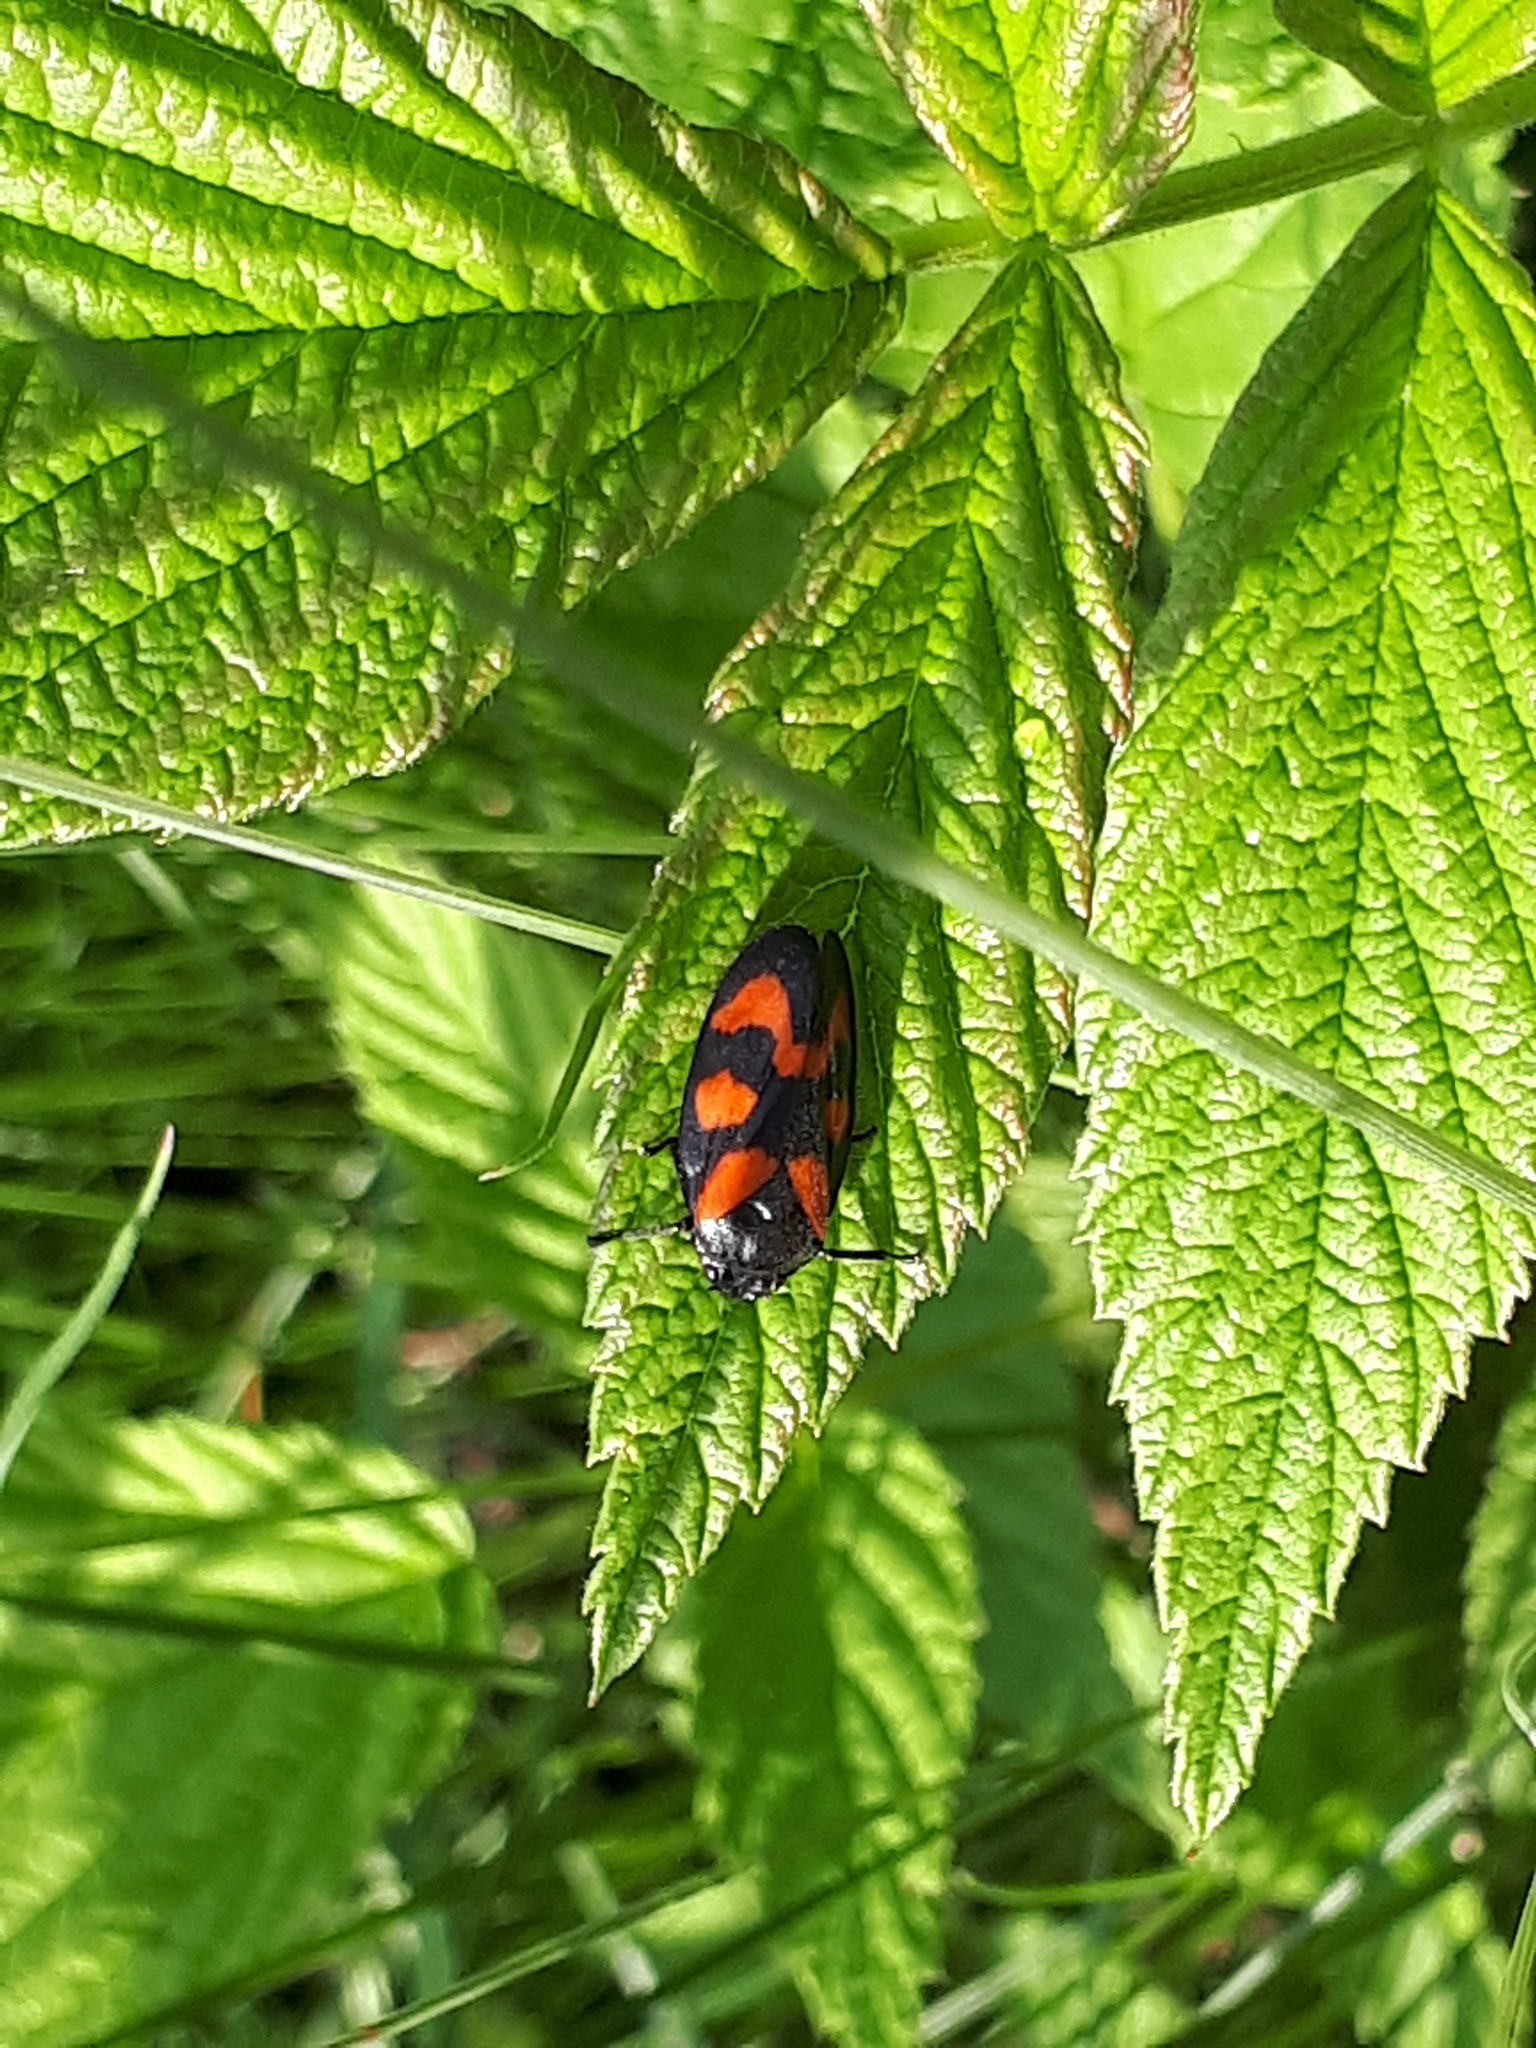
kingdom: Animalia
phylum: Arthropoda
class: Insecta
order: Hemiptera
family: Cercopidae
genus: Cercopis
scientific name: Cercopis vulnerata
